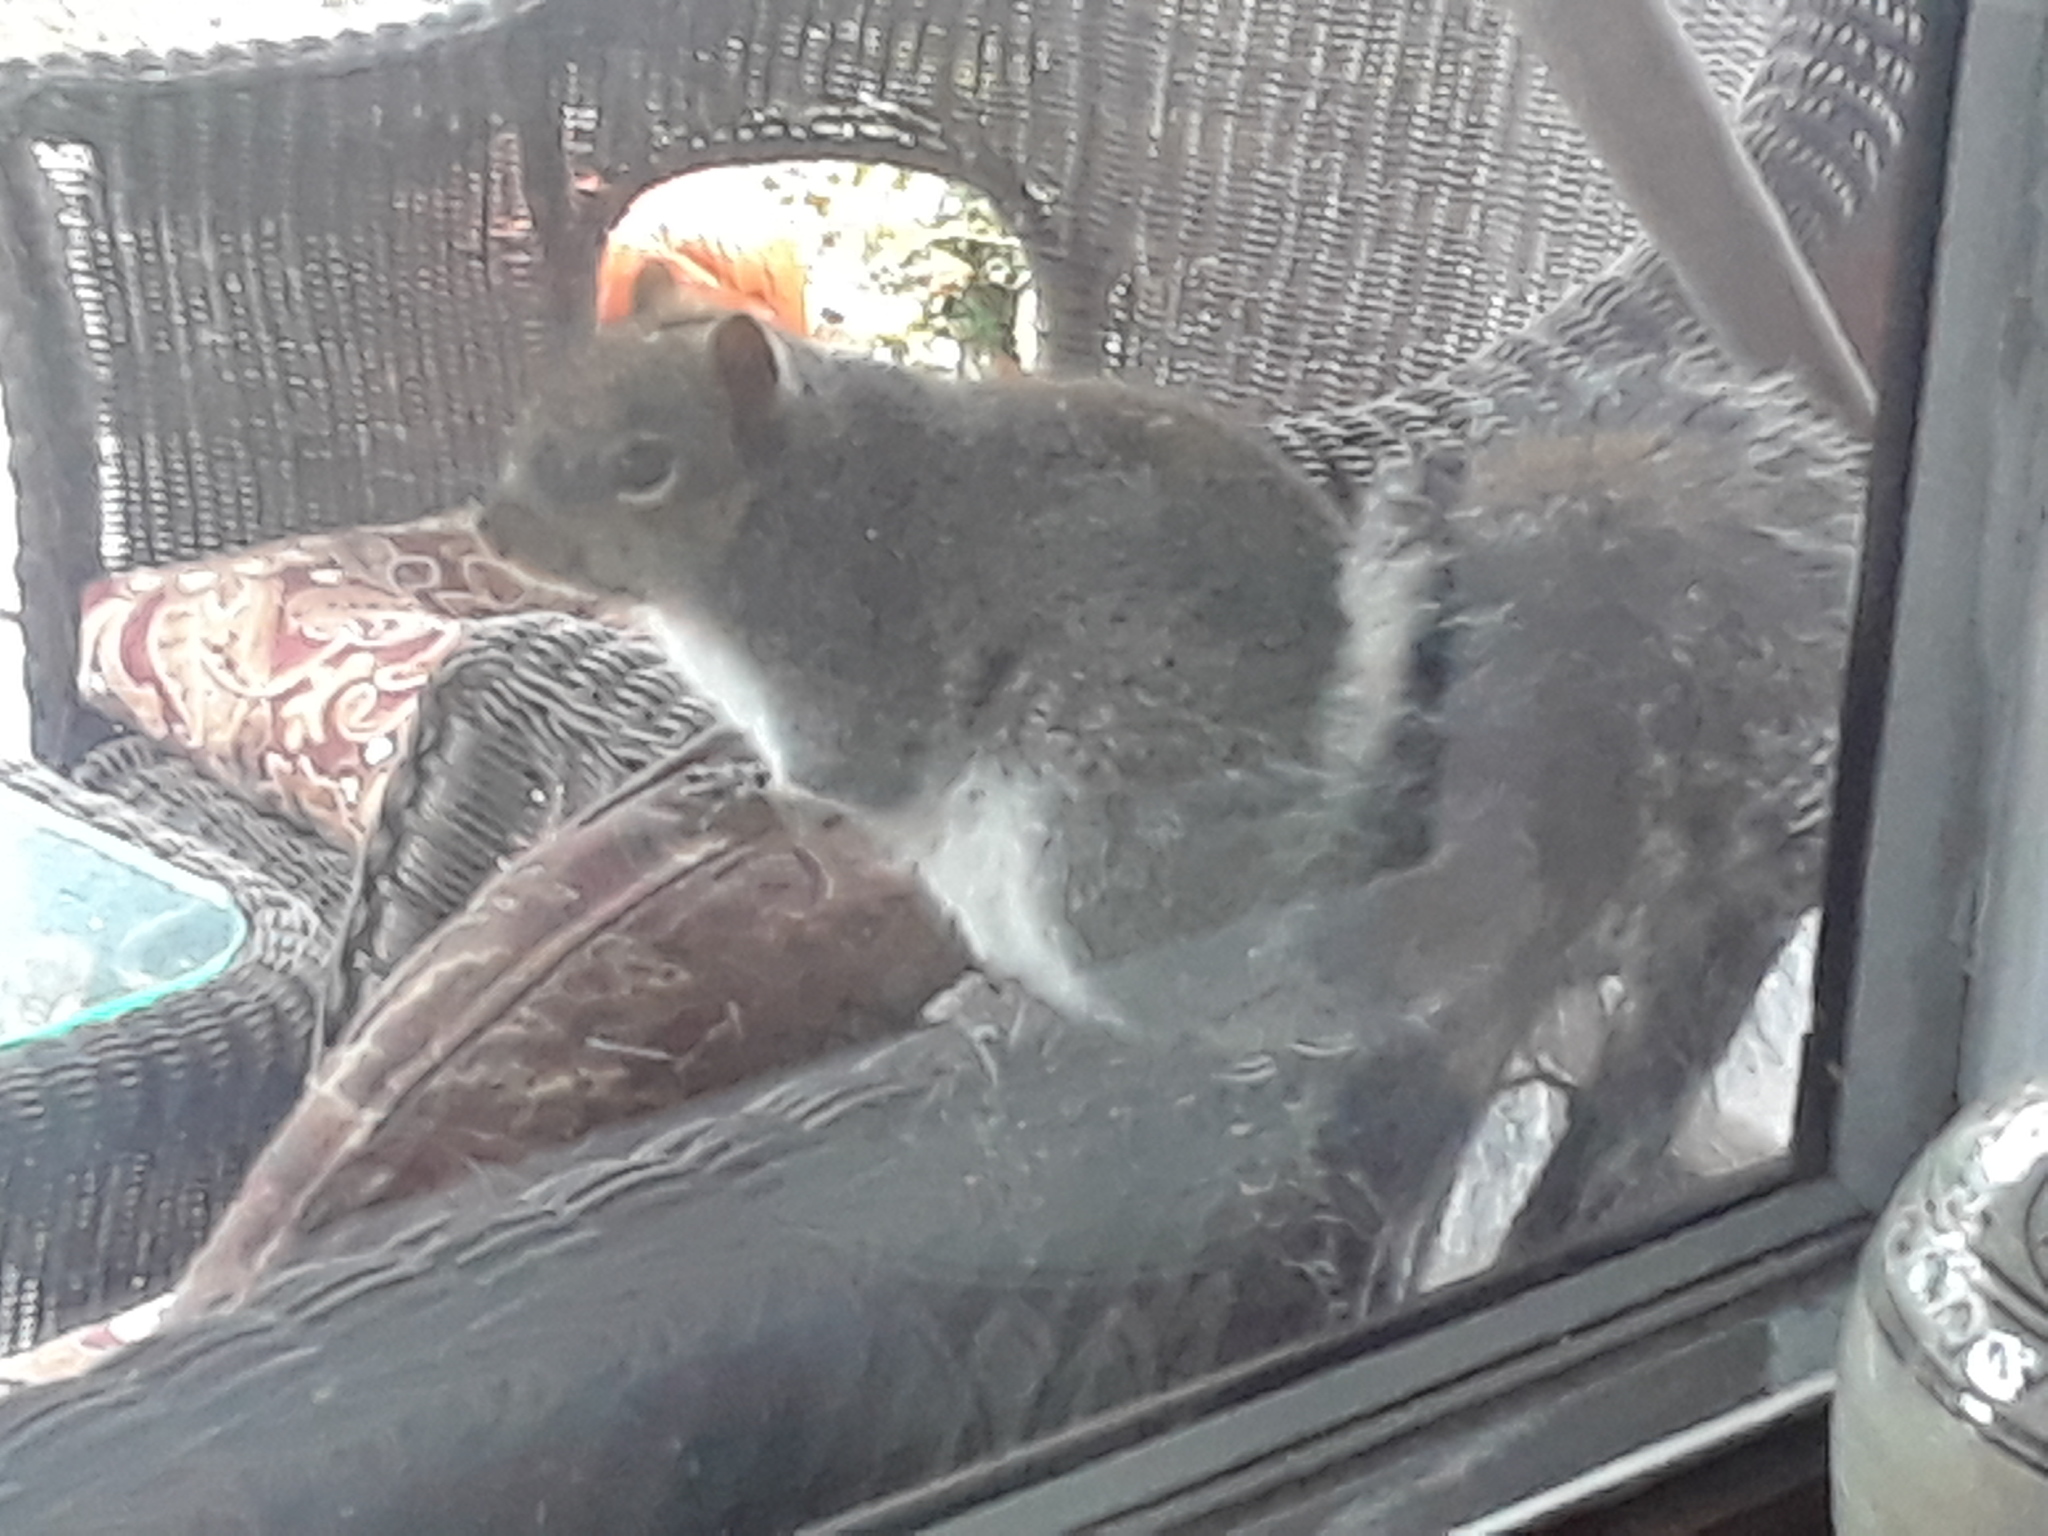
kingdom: Animalia
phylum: Chordata
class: Mammalia
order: Rodentia
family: Sciuridae
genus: Sciurus
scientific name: Sciurus carolinensis
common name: Eastern gray squirrel
